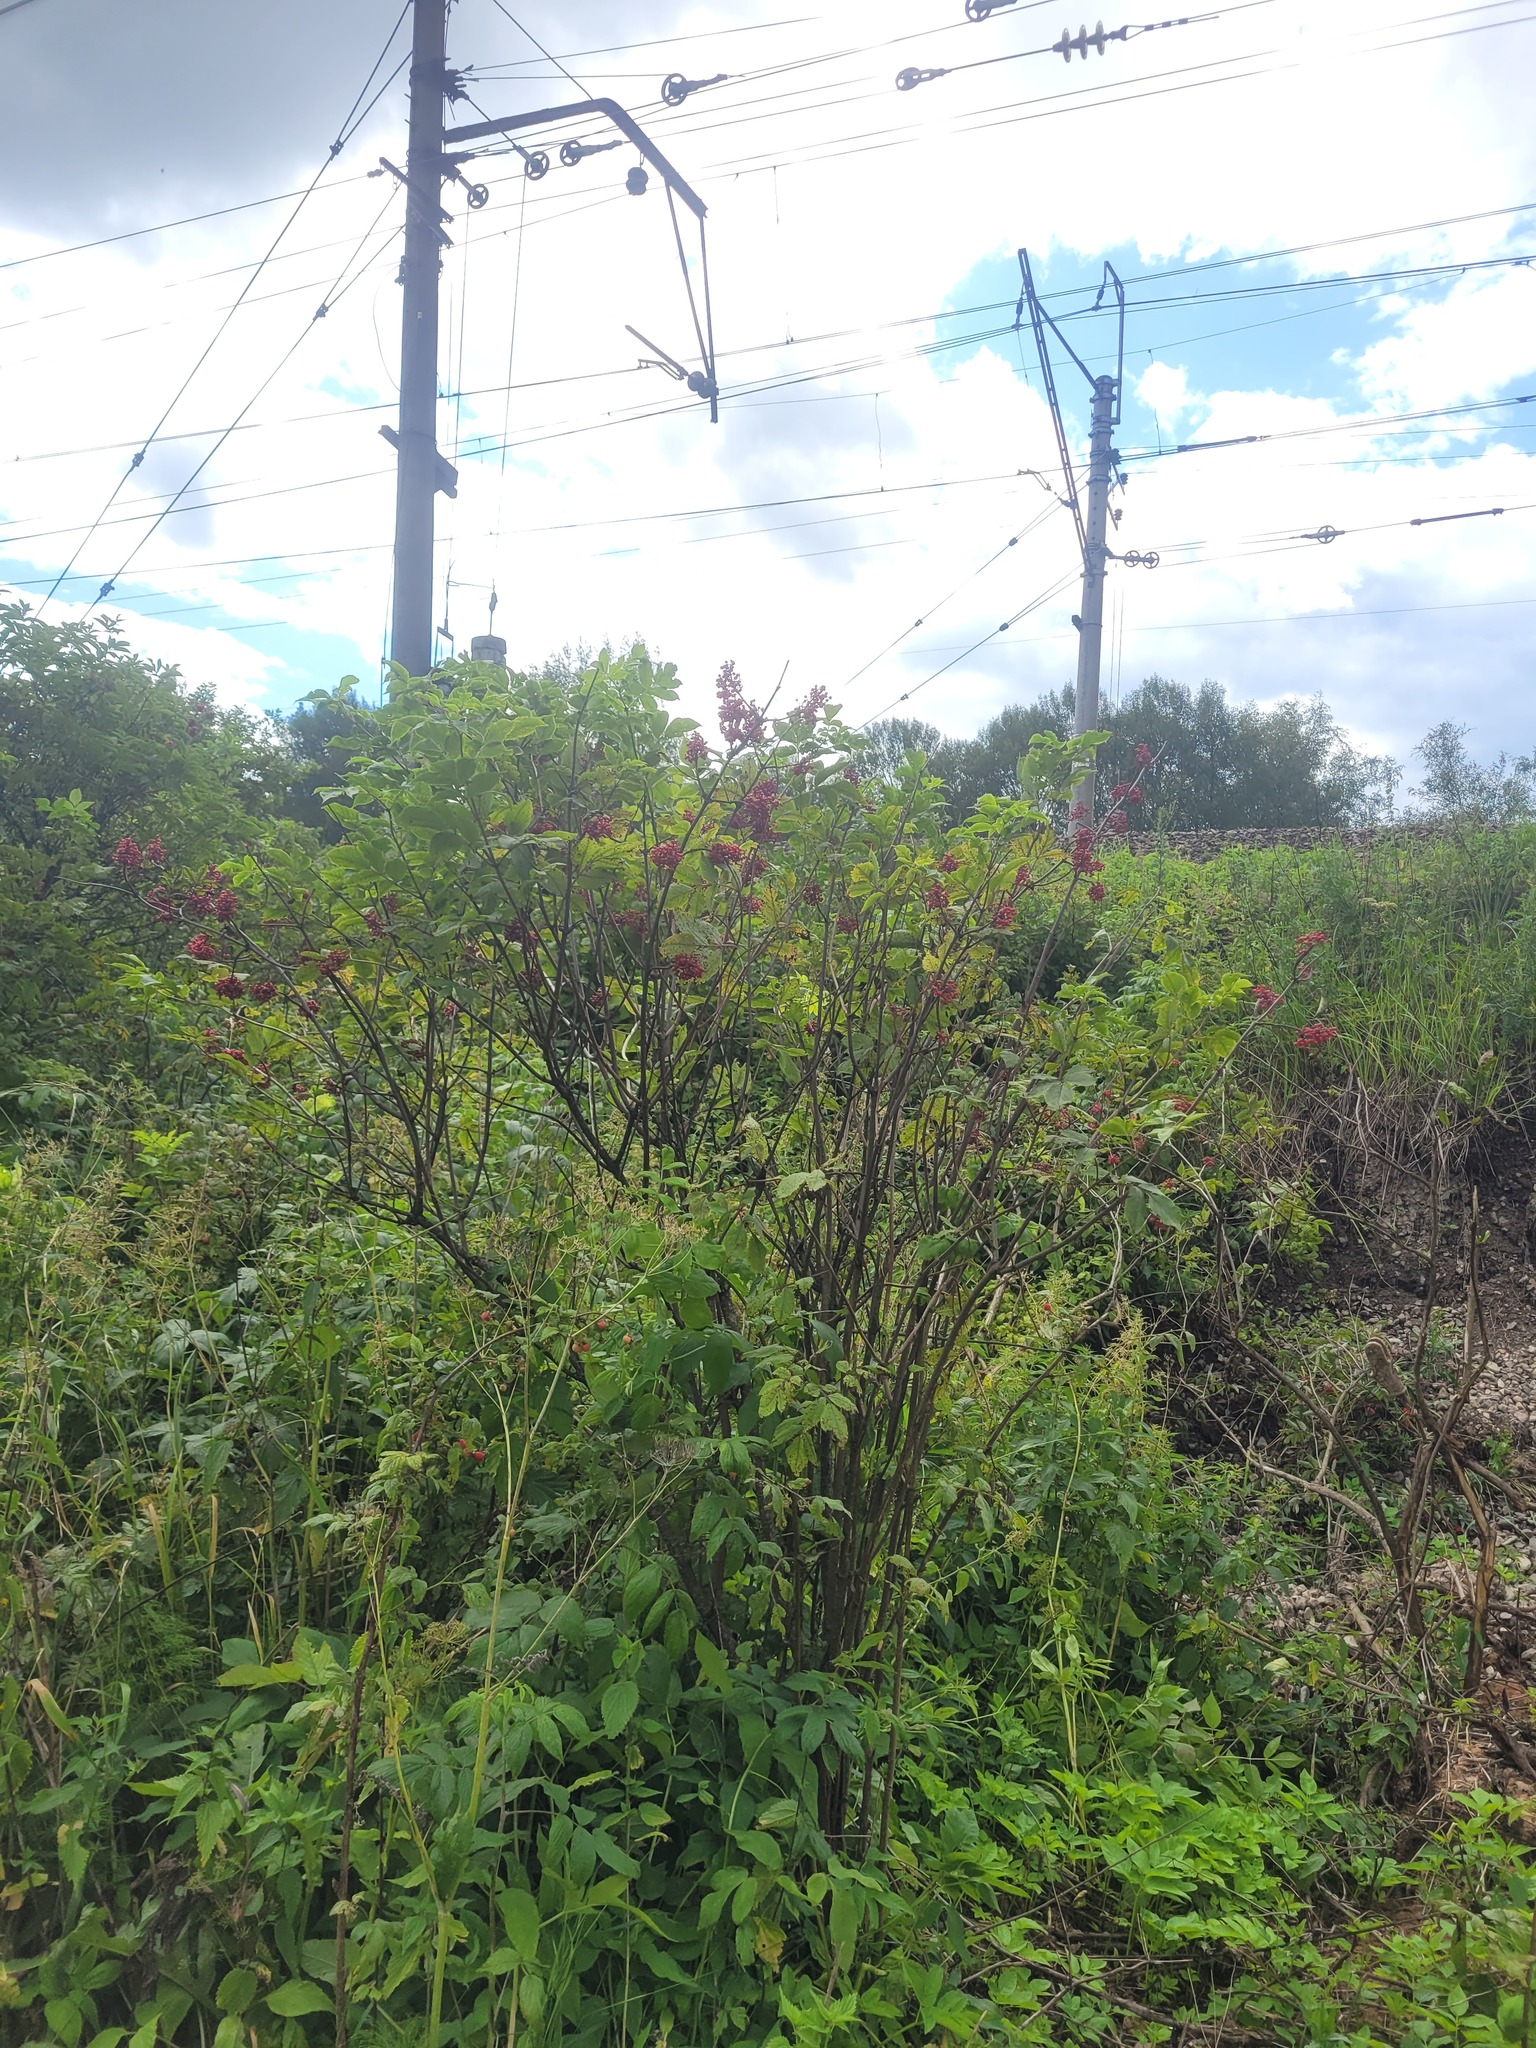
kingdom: Plantae
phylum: Tracheophyta
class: Magnoliopsida
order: Dipsacales
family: Viburnaceae
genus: Sambucus
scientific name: Sambucus racemosa
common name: Red-berried elder
